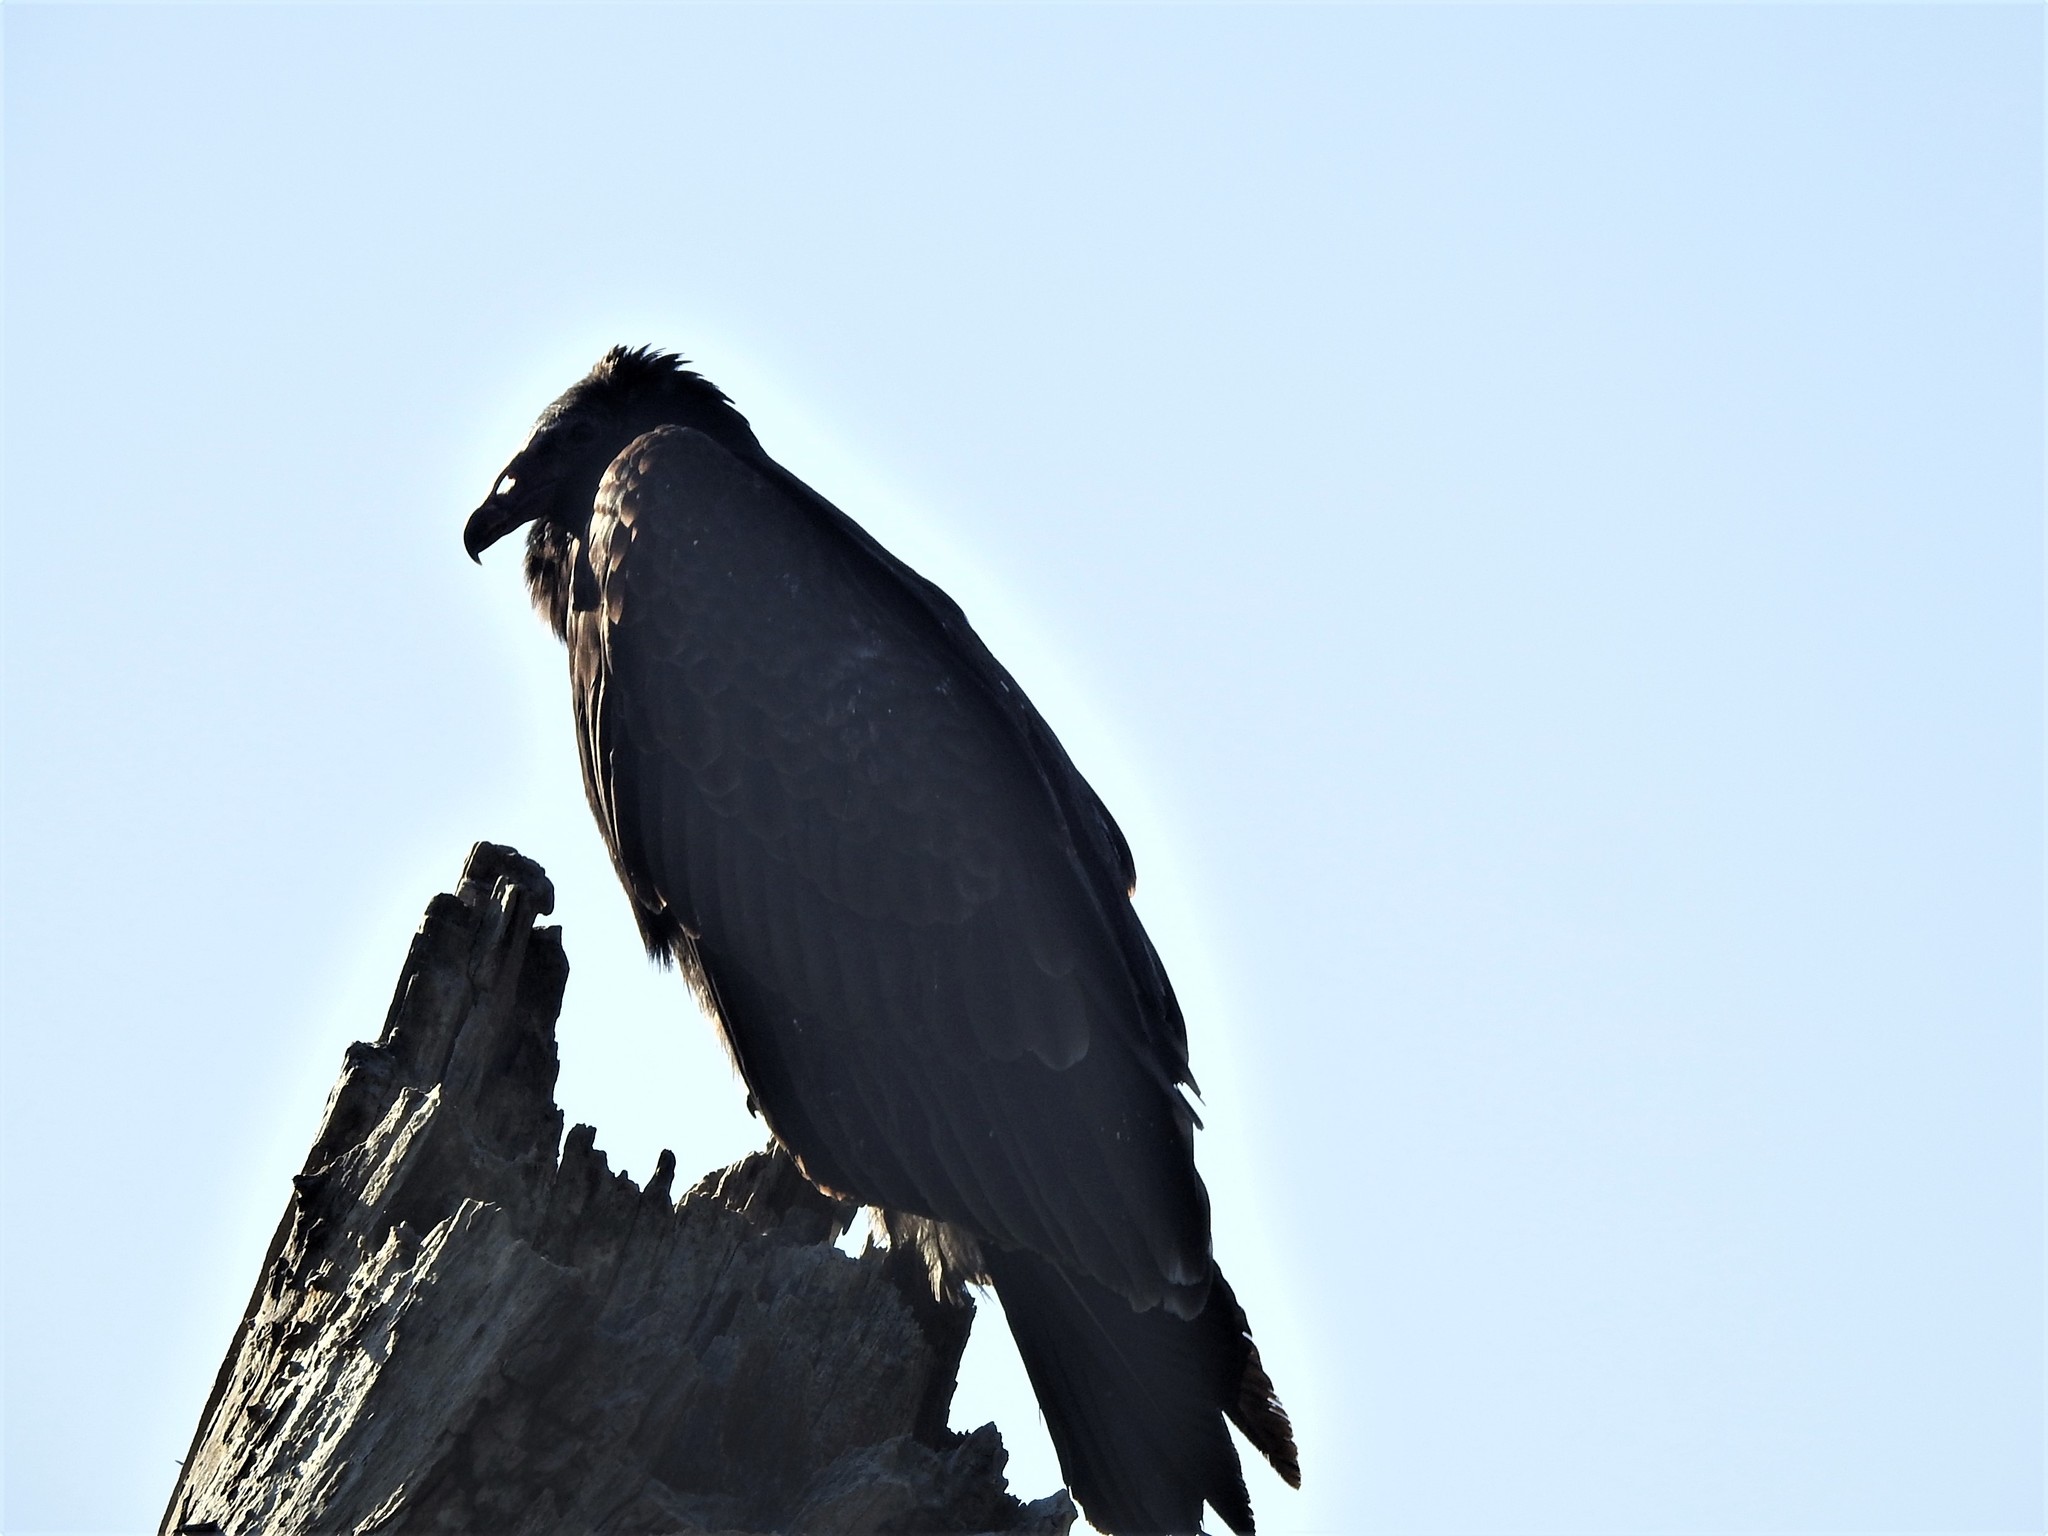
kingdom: Animalia
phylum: Chordata
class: Aves
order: Accipitriformes
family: Cathartidae
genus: Cathartes
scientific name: Cathartes aura
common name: Turkey vulture
